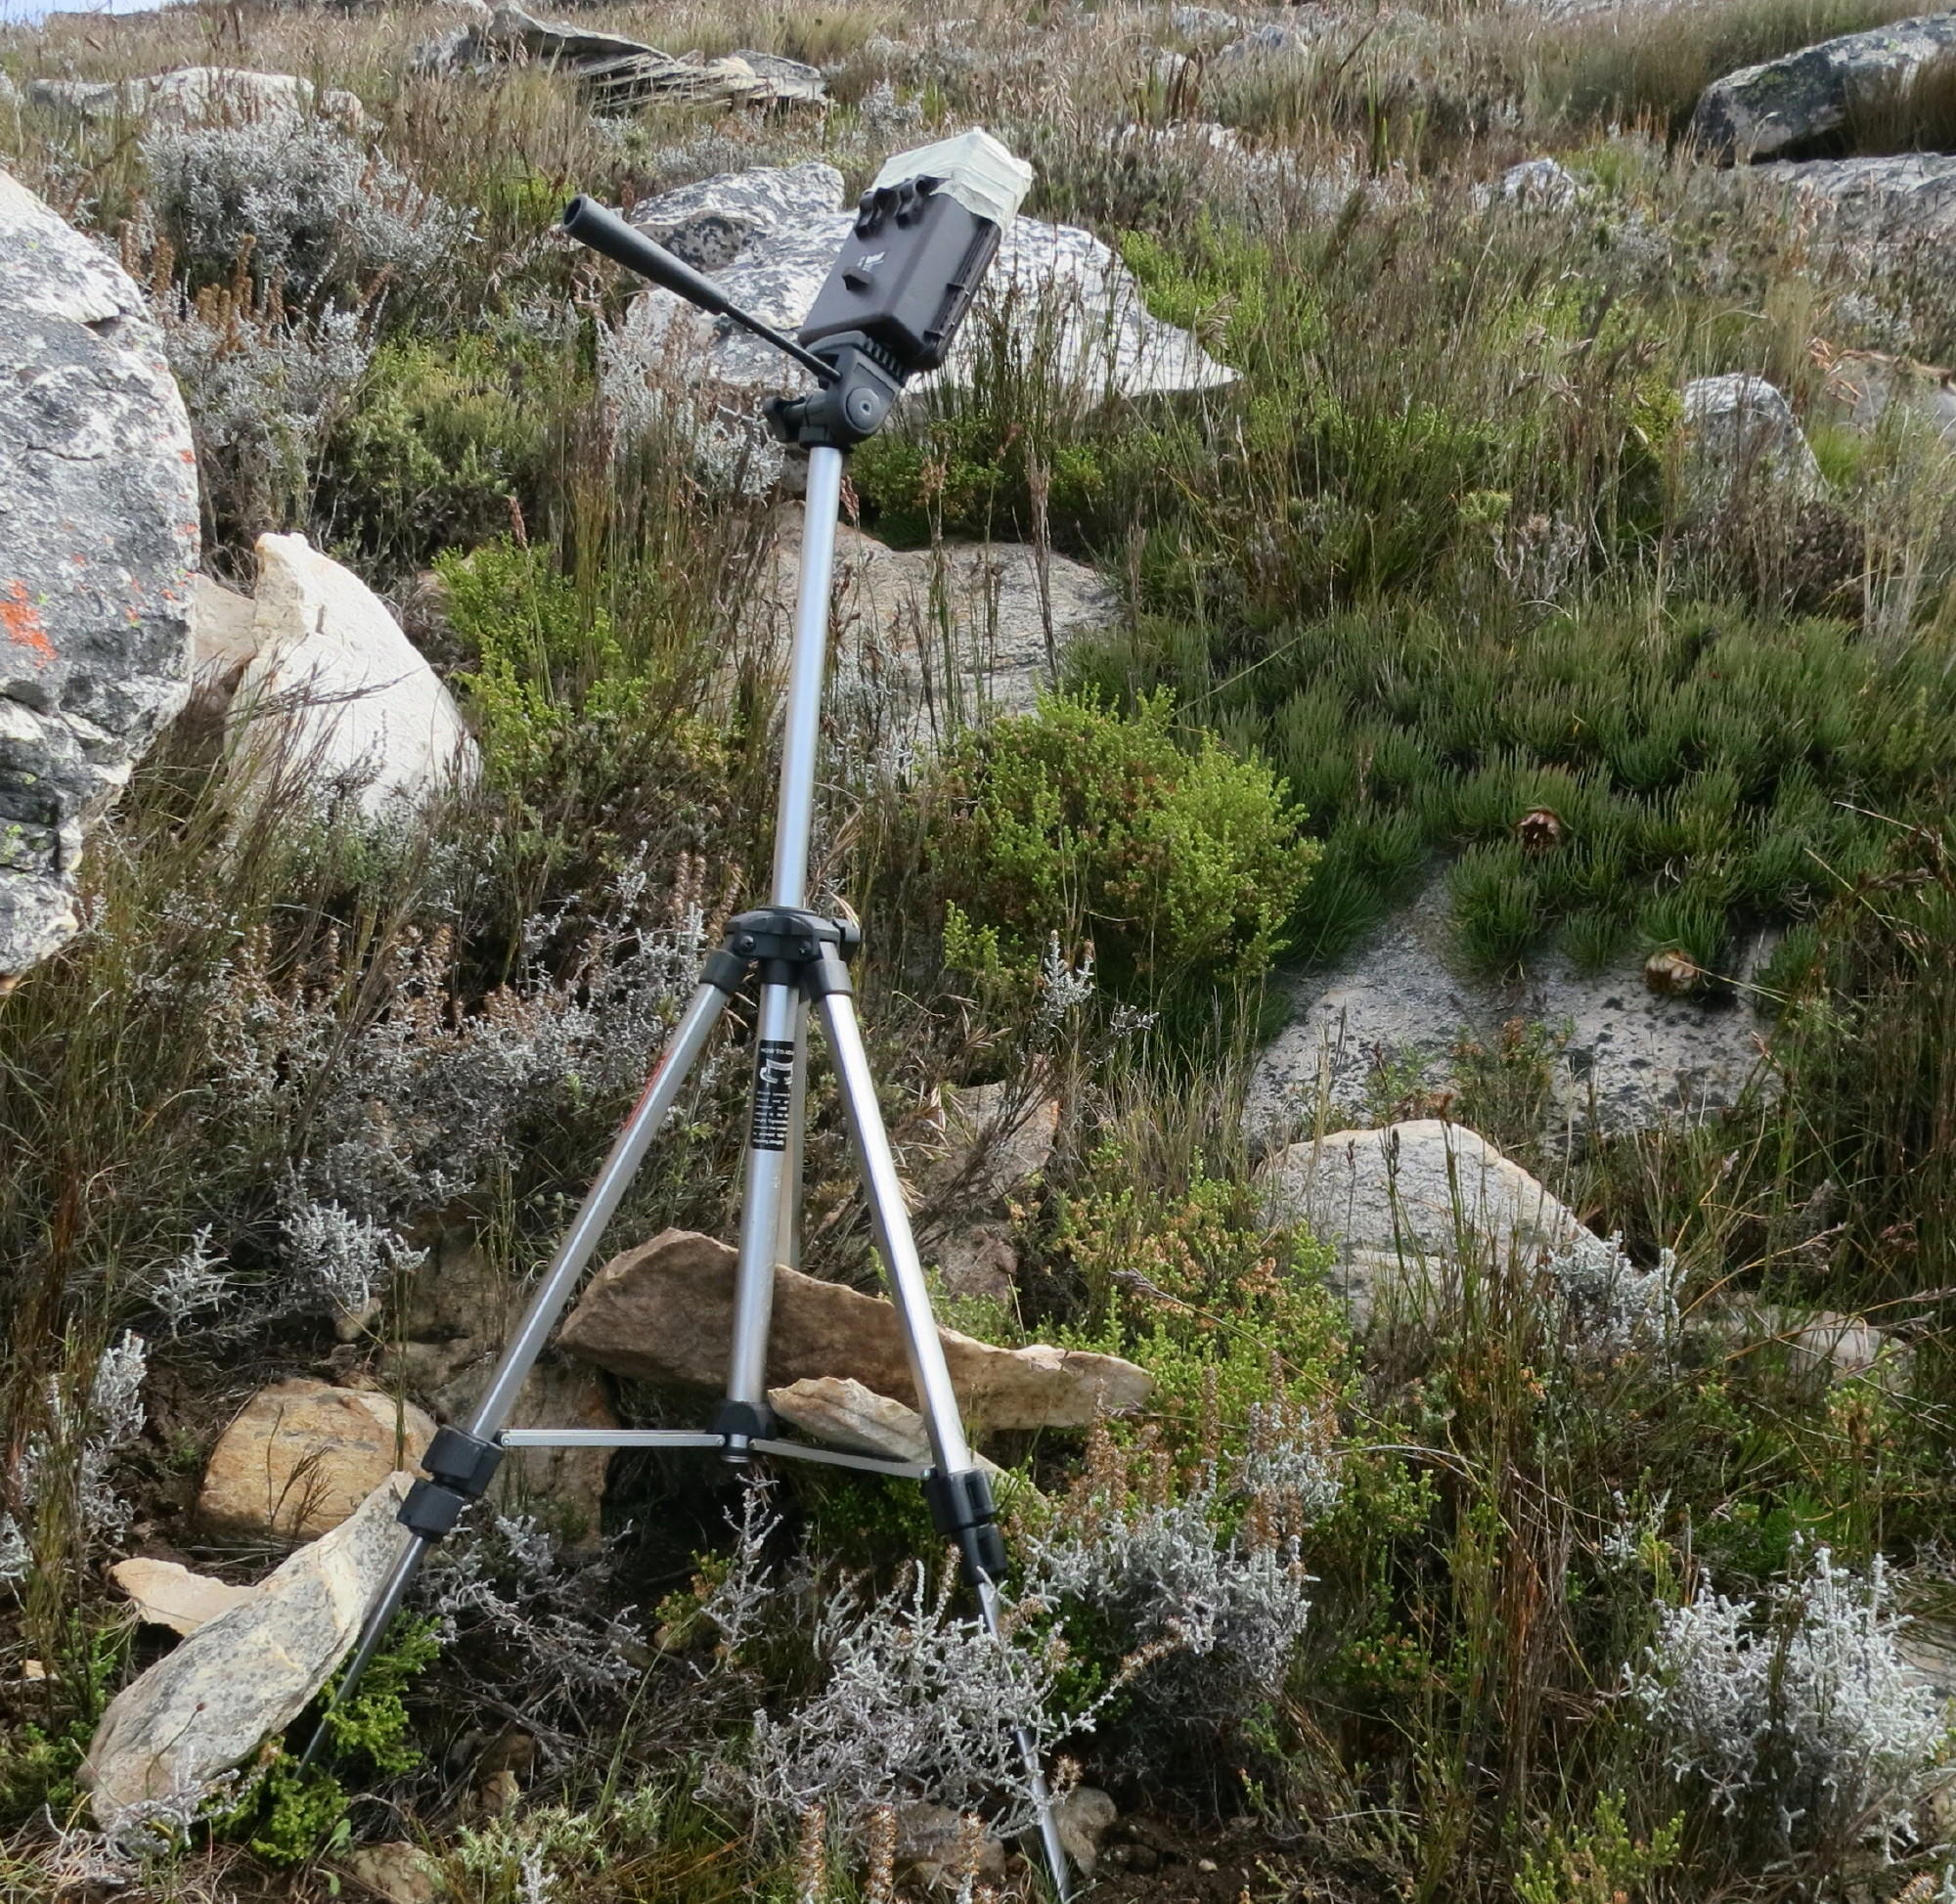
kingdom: Plantae
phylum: Tracheophyta
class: Magnoliopsida
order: Proteales
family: Proteaceae
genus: Protea
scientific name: Protea montana
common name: Swartberg sugarbush
